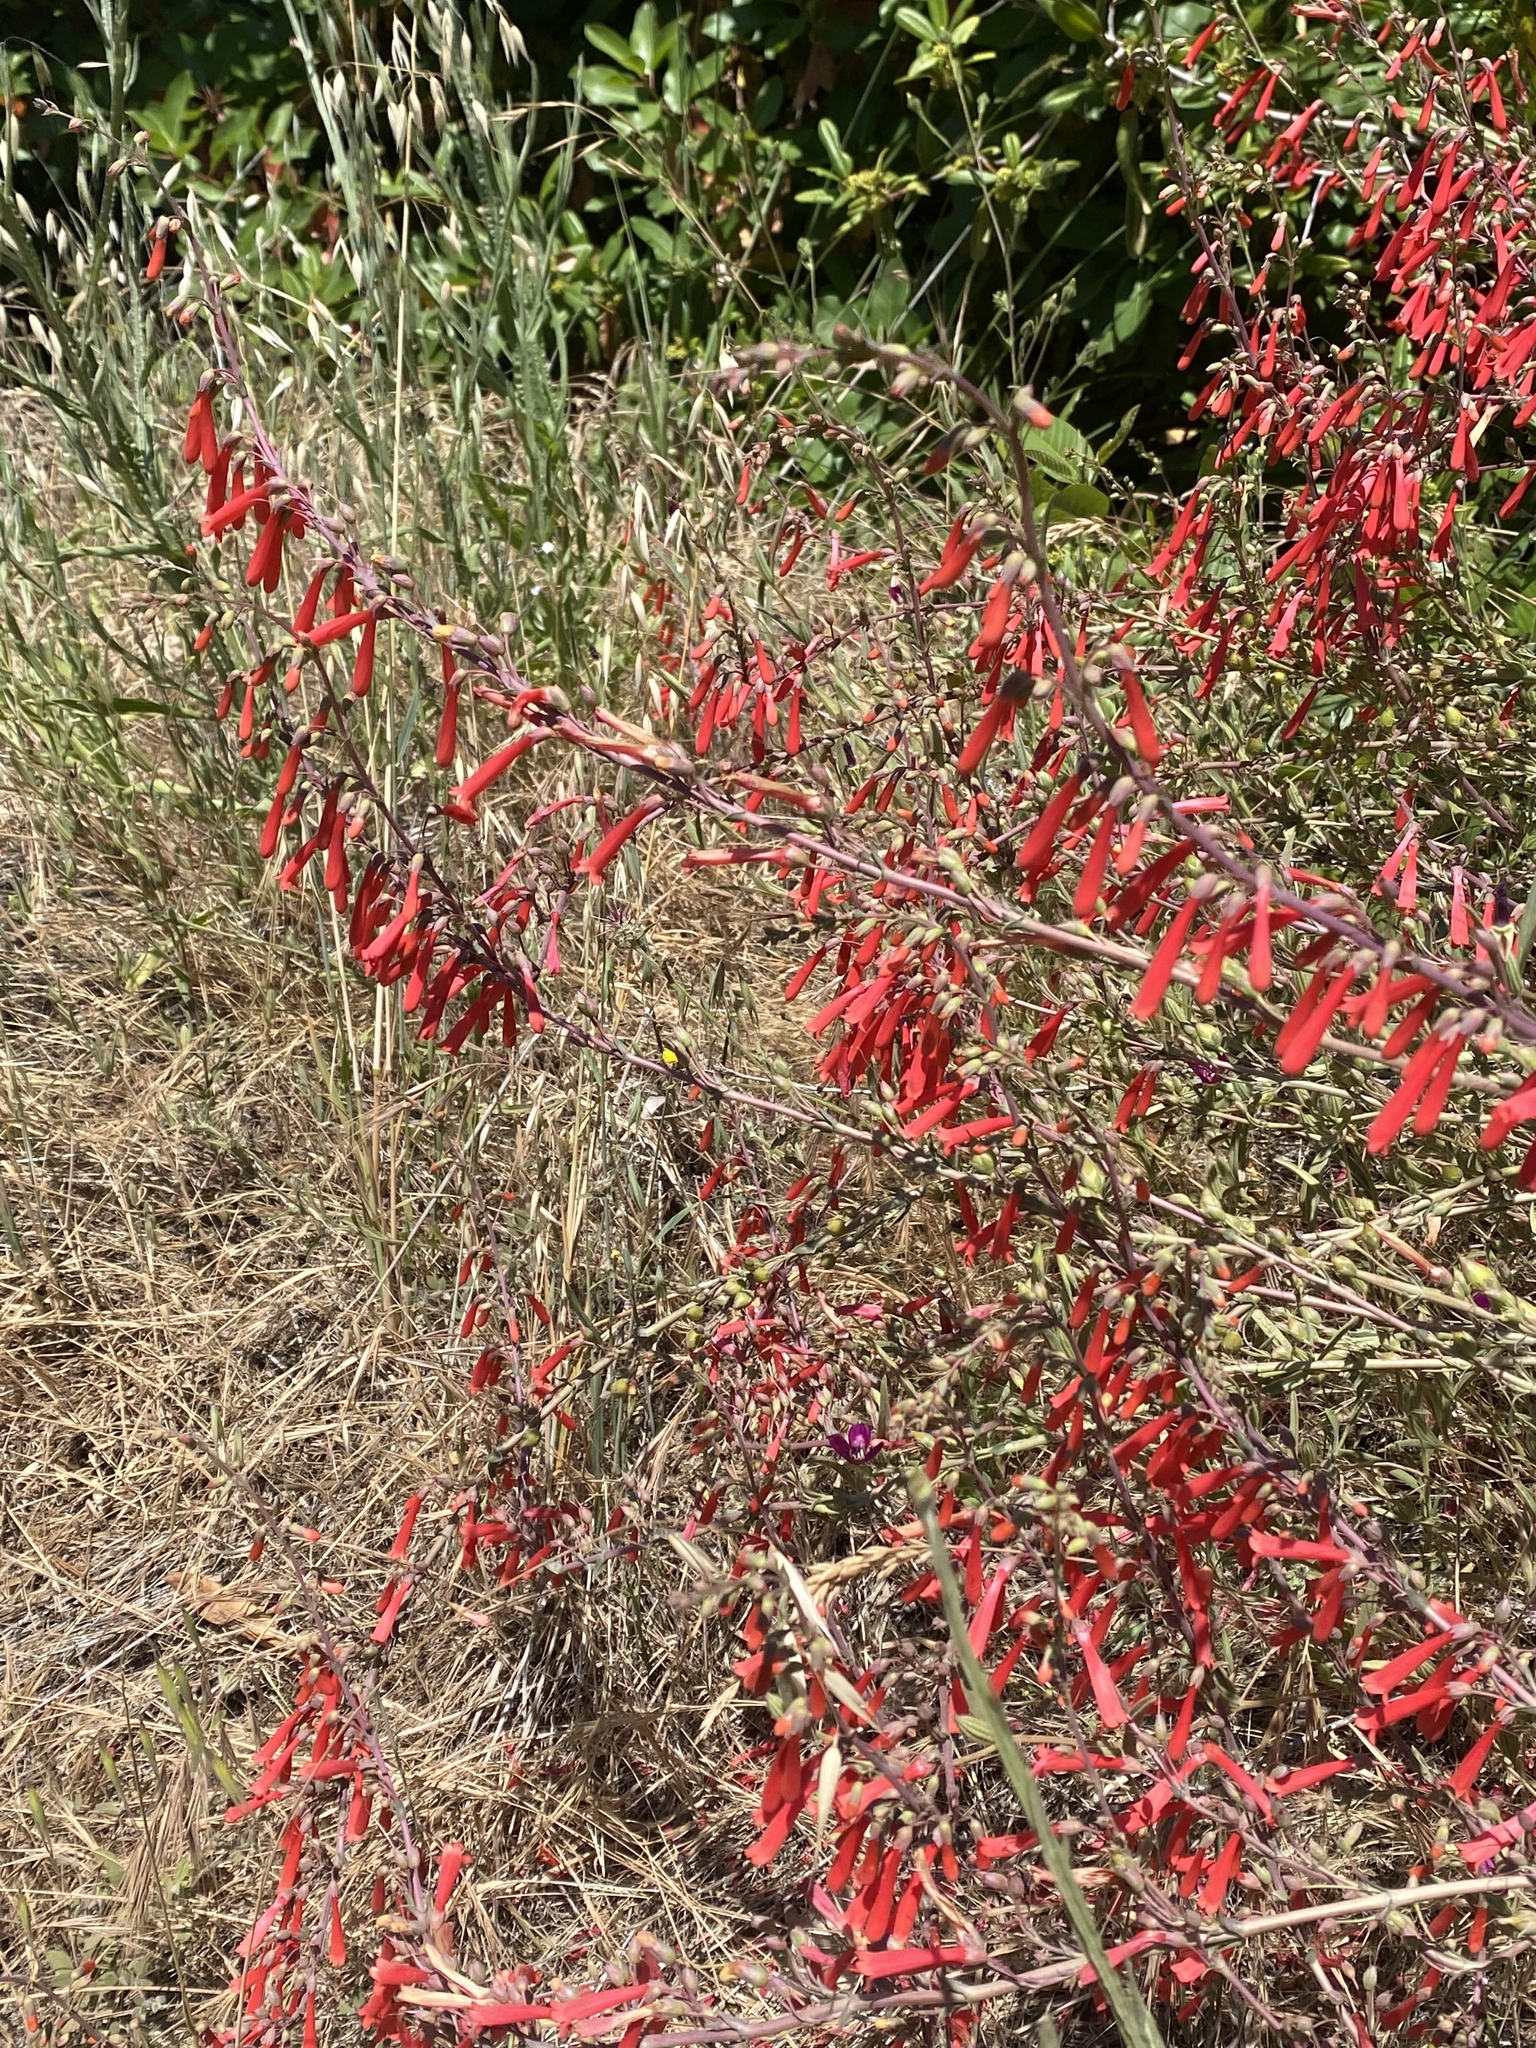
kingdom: Plantae
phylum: Tracheophyta
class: Magnoliopsida
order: Lamiales
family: Plantaginaceae
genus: Penstemon
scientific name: Penstemon centranthifolius
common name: Scarlet bugler
